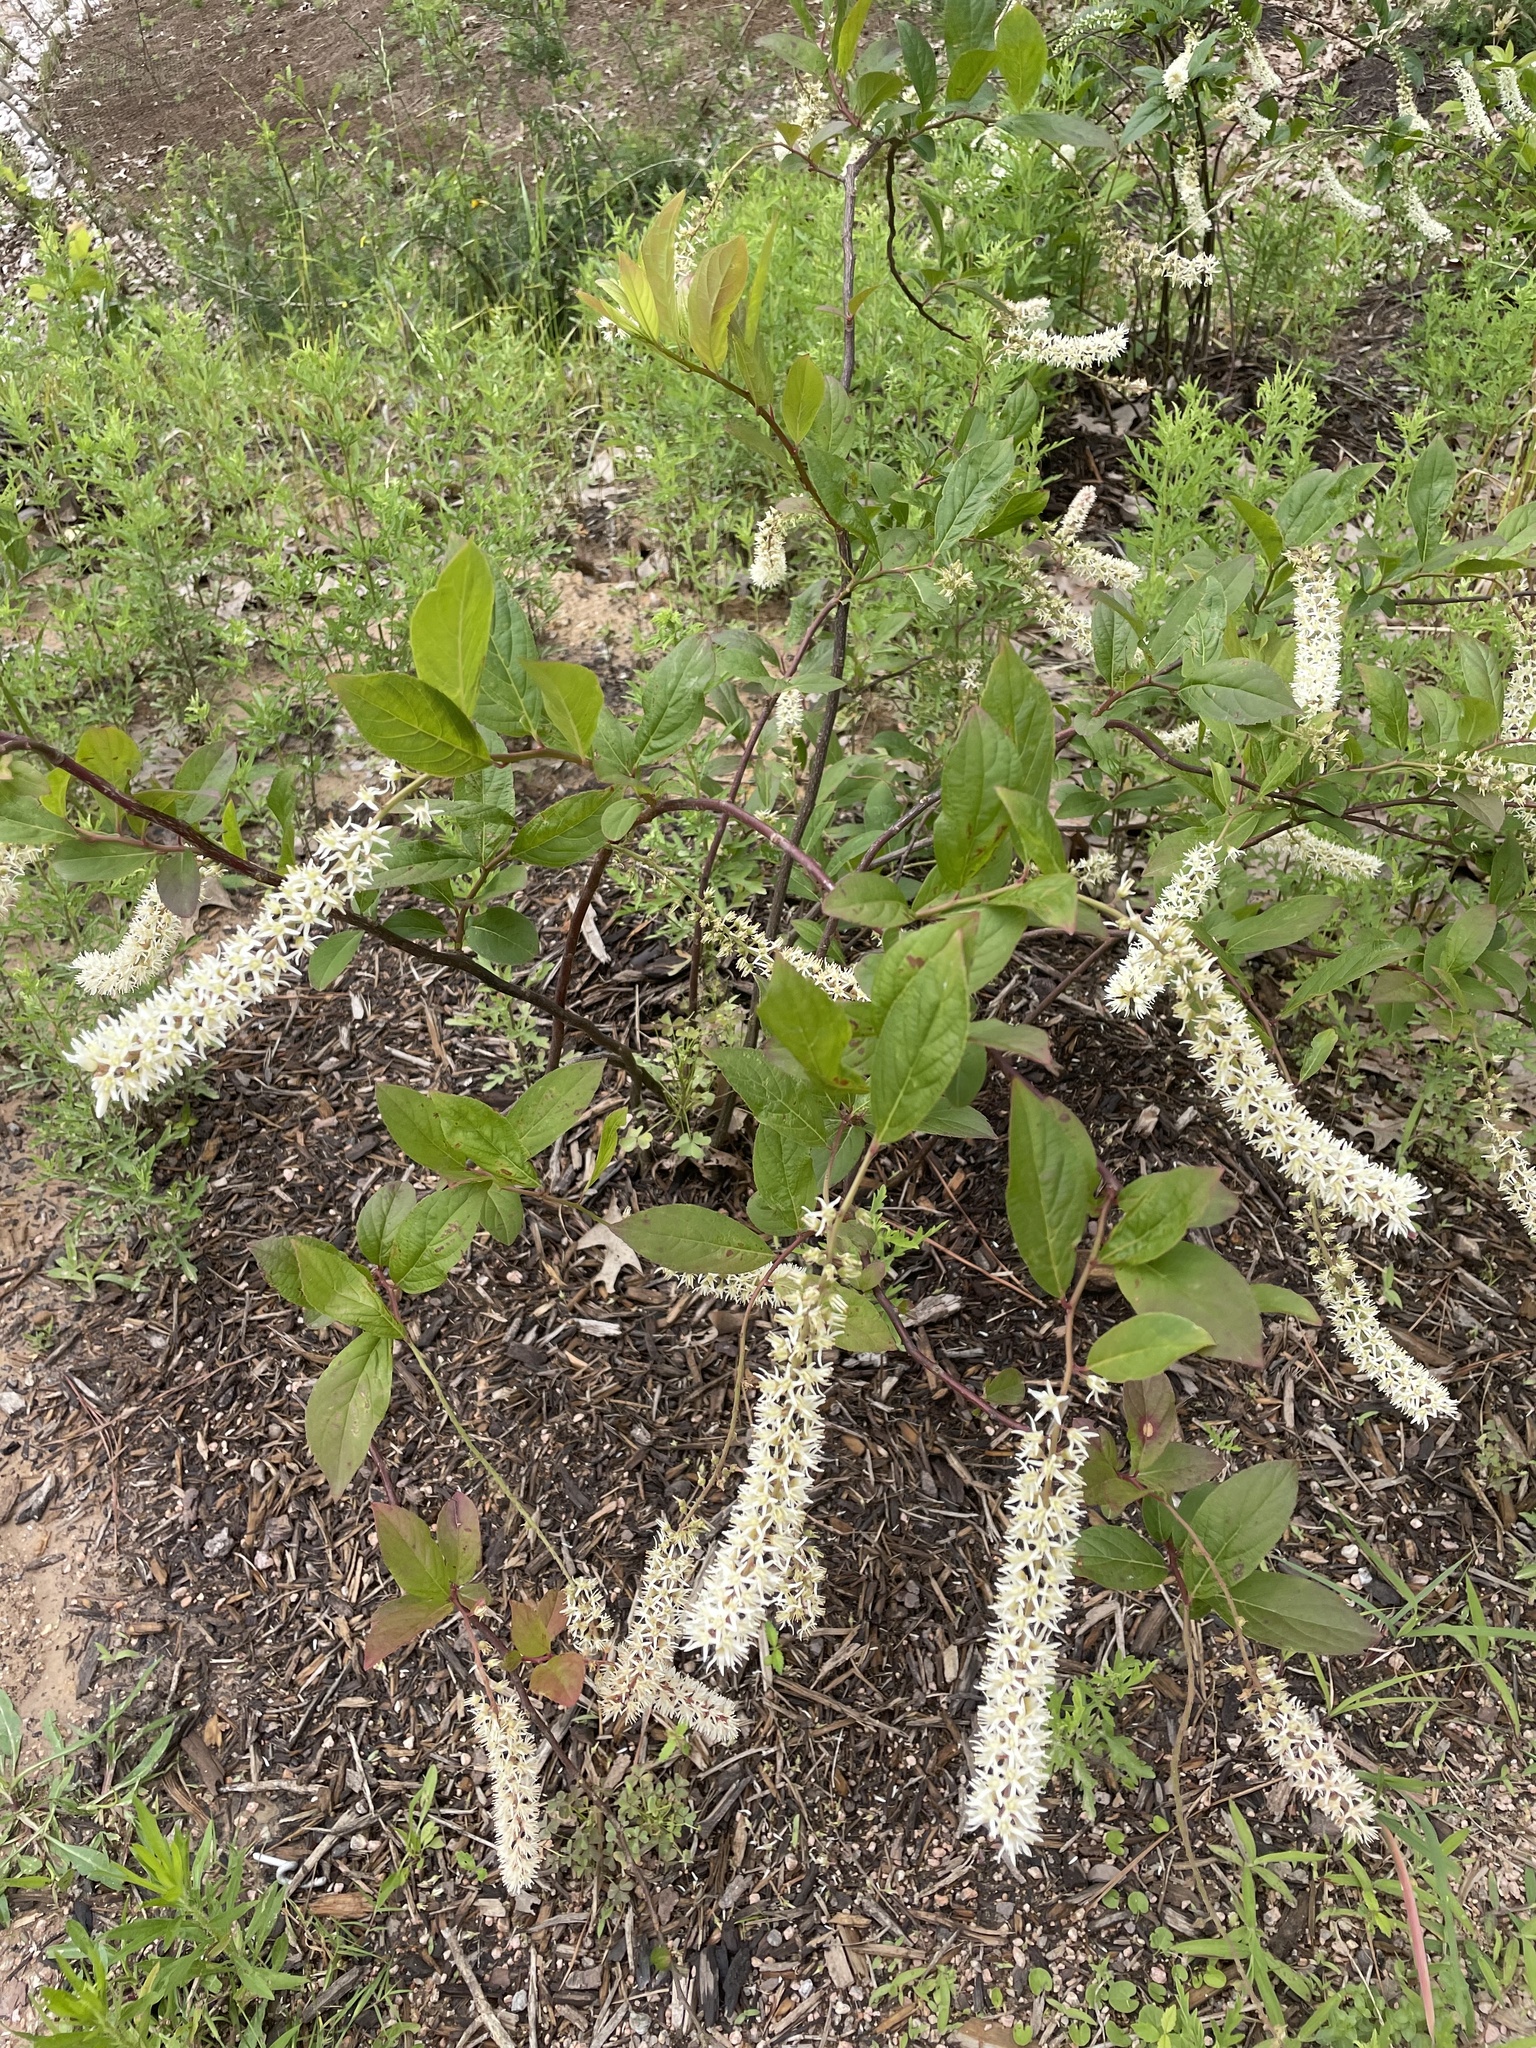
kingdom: Plantae
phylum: Tracheophyta
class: Magnoliopsida
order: Saxifragales
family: Iteaceae
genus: Itea
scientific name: Itea virginica
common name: Sweetspire
